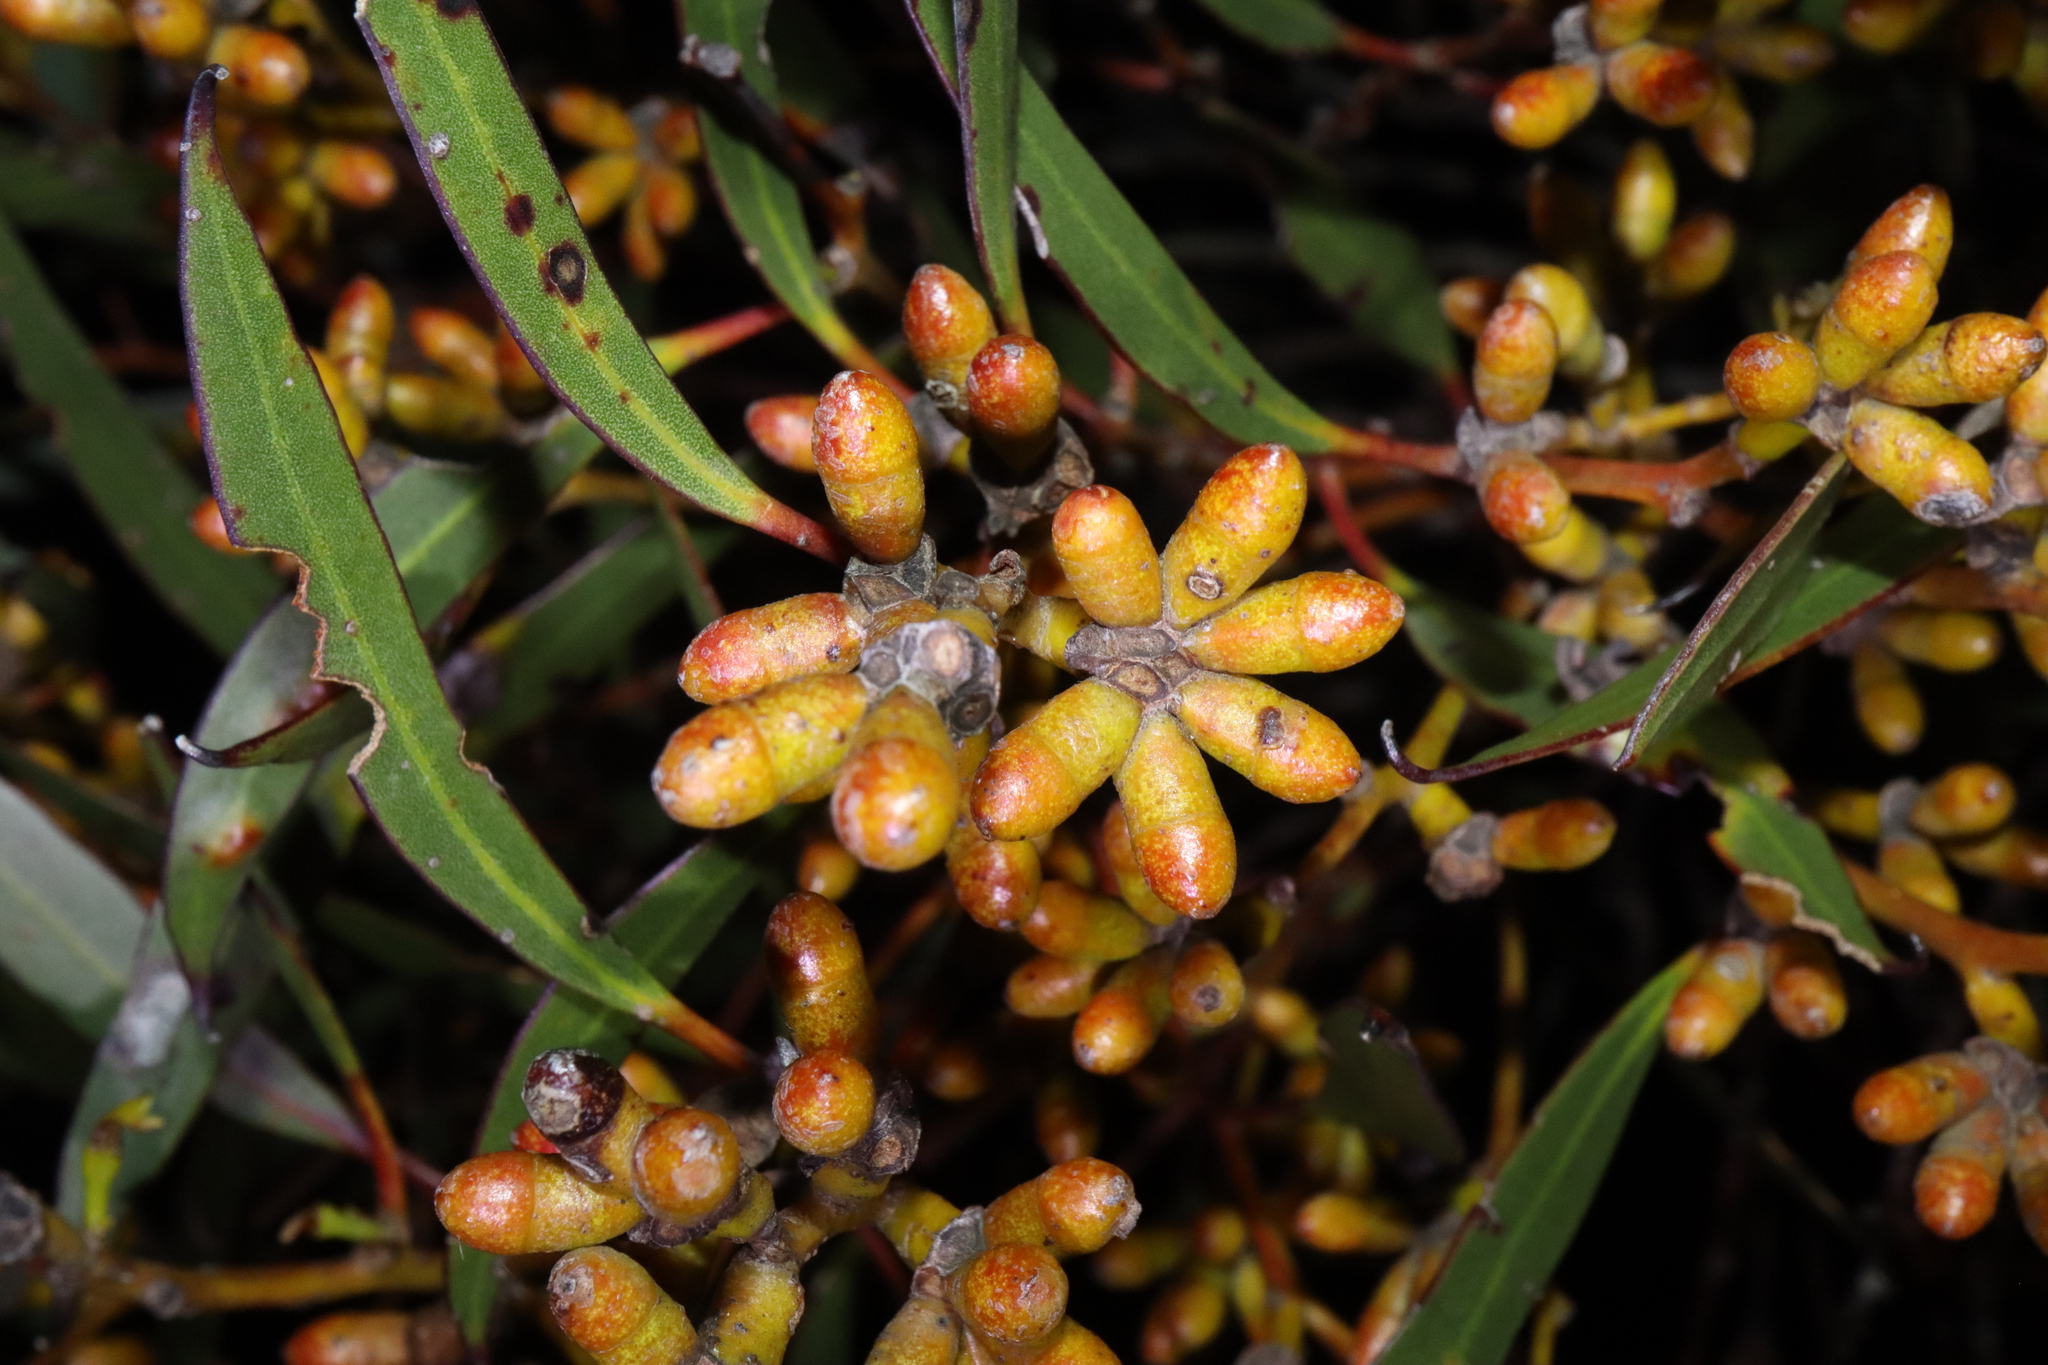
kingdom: Plantae
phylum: Tracheophyta
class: Magnoliopsida
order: Myrtales
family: Myrtaceae
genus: Eucalyptus
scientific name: Eucalyptus uncinata
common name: Hooked-leaved mallee
